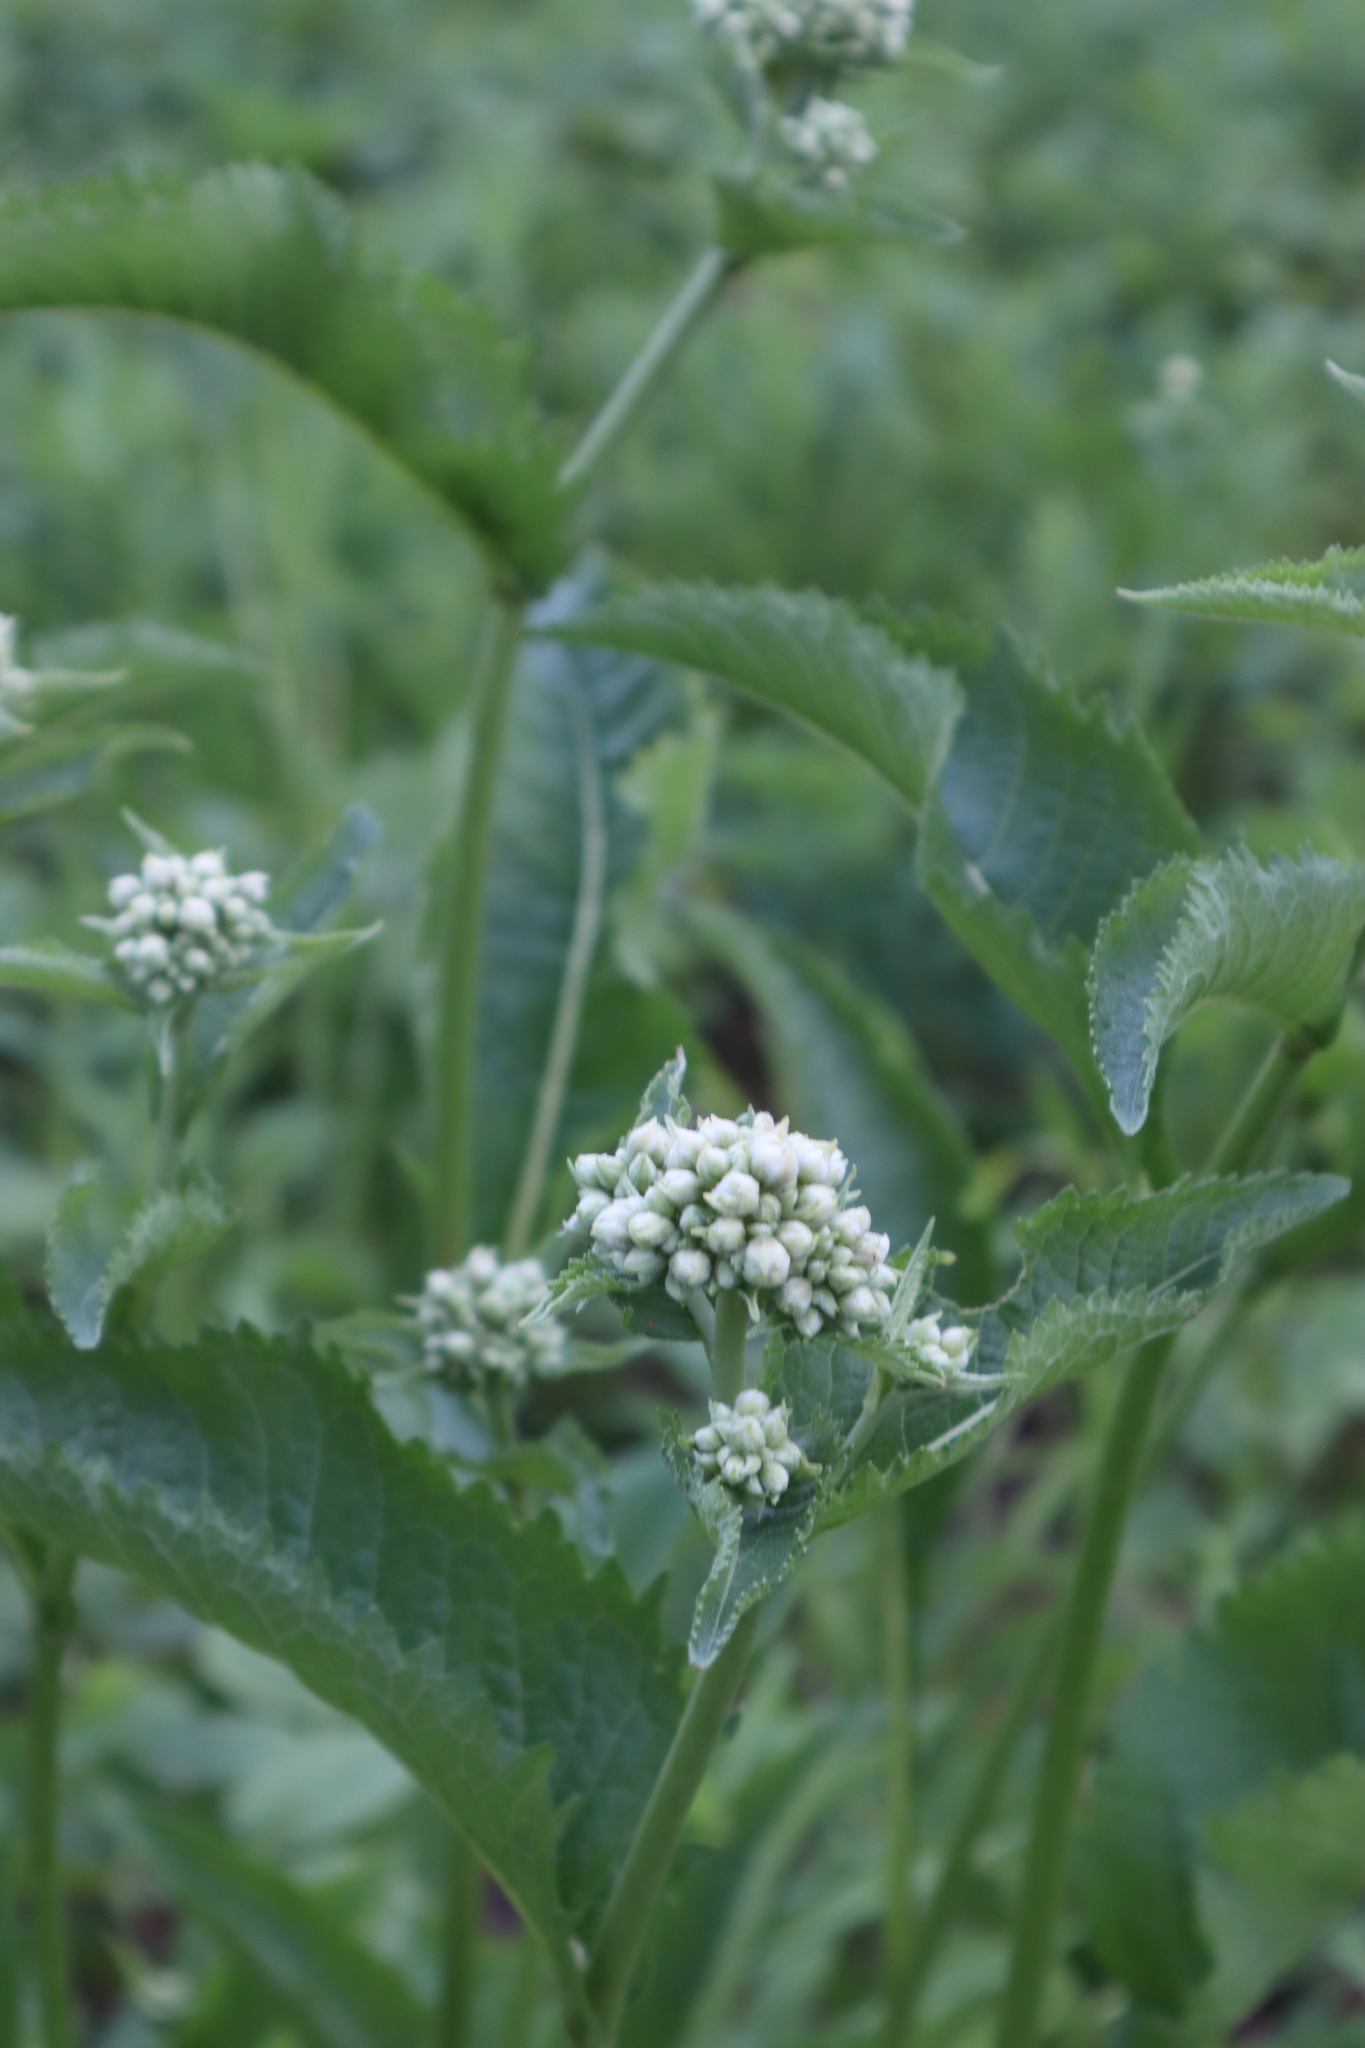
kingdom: Plantae
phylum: Tracheophyta
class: Magnoliopsida
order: Asterales
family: Asteraceae
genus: Parthenium
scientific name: Parthenium integrifolium
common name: American feverfew
